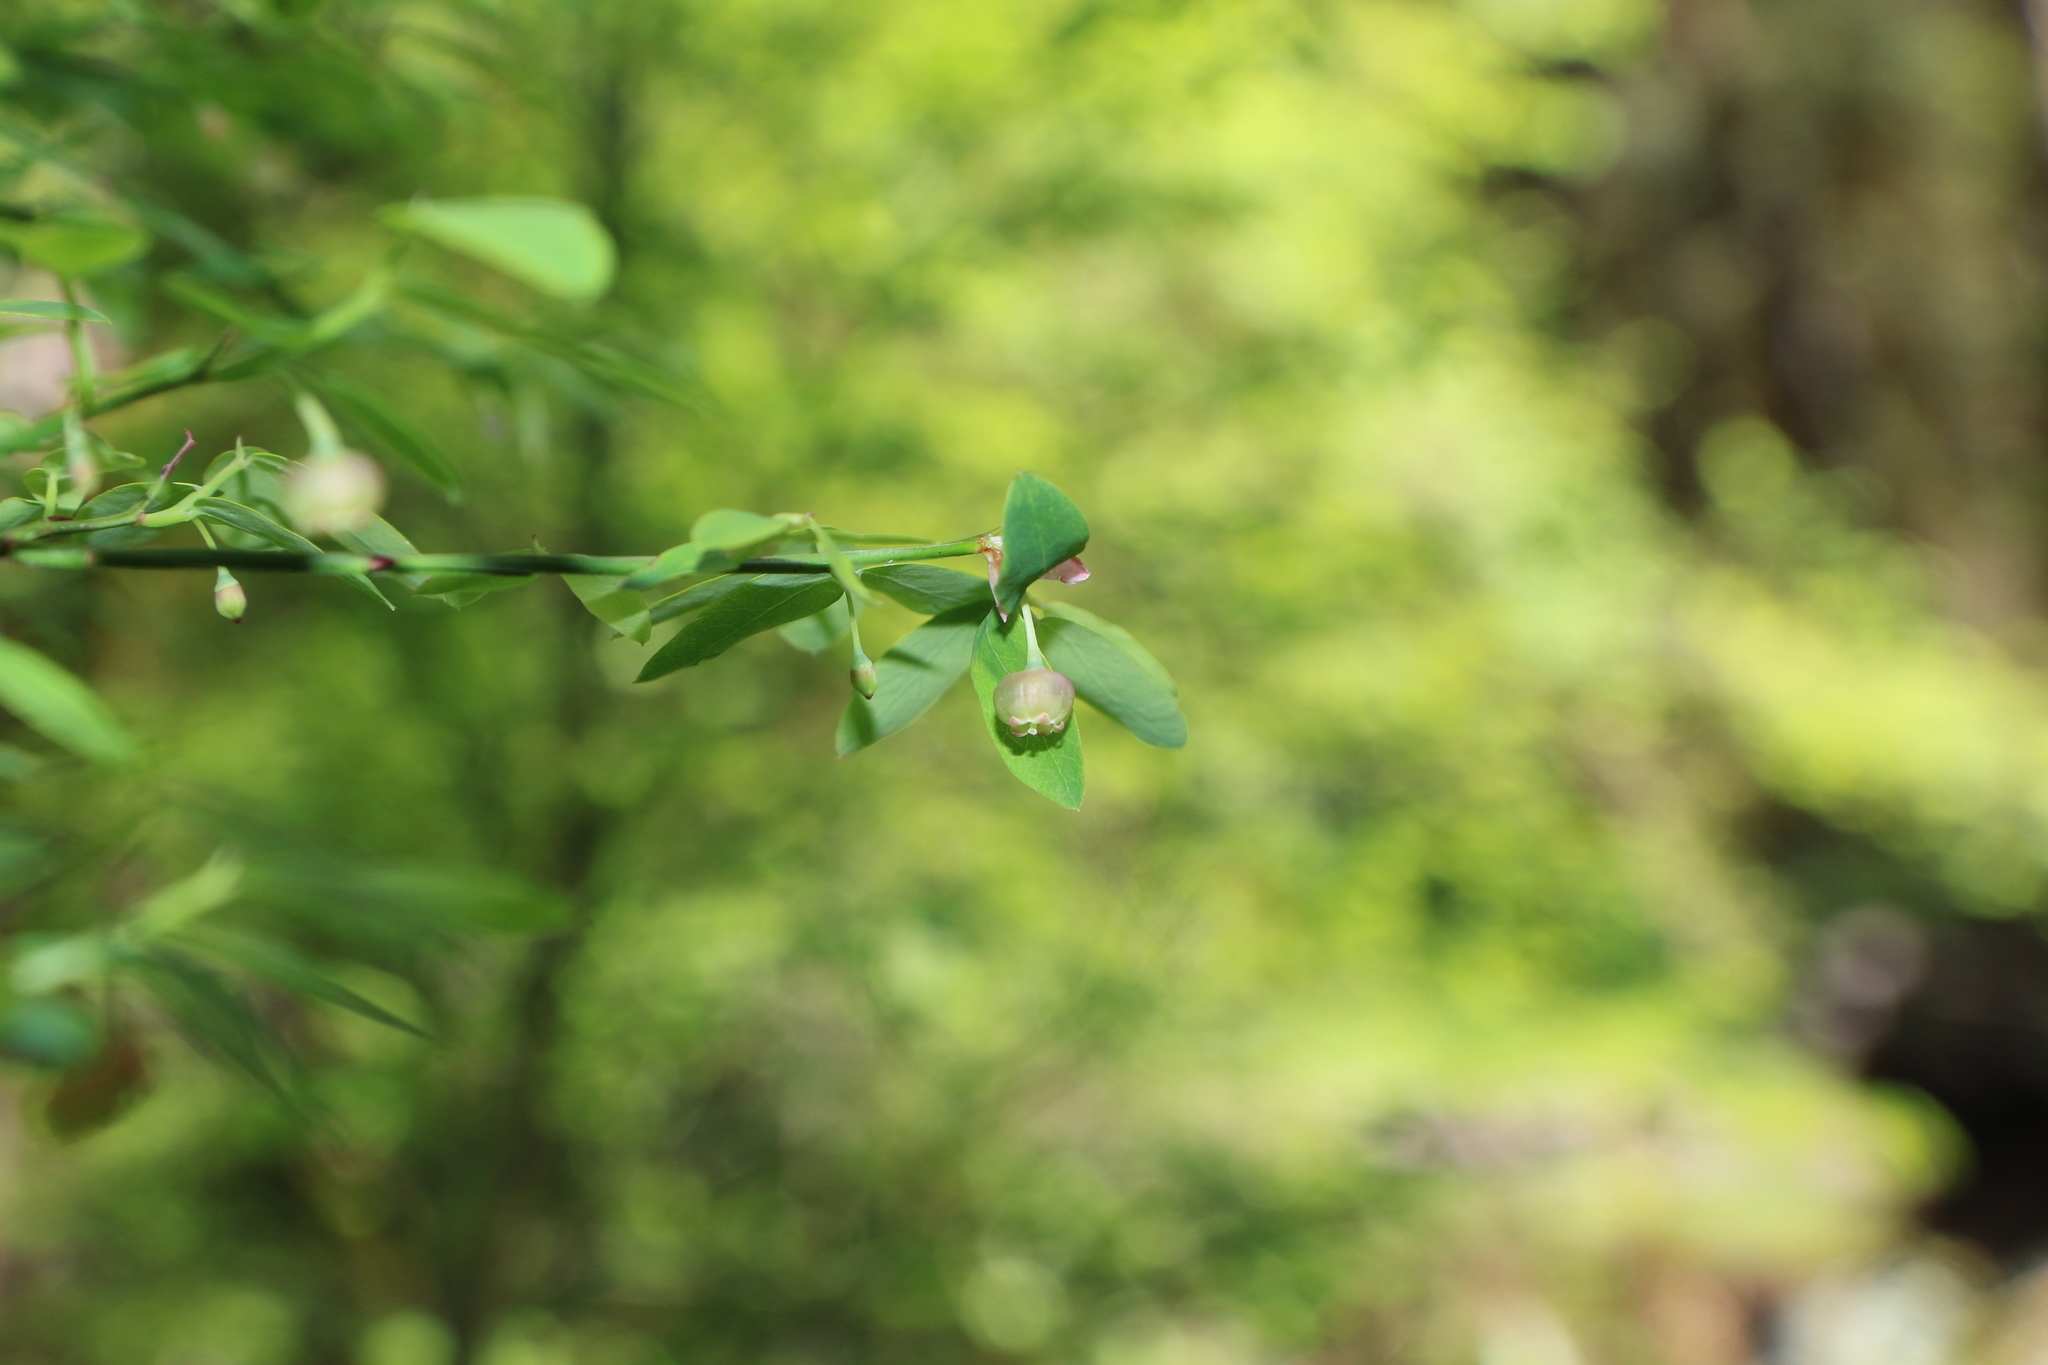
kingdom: Plantae
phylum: Tracheophyta
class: Magnoliopsida
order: Ericales
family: Ericaceae
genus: Vaccinium
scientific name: Vaccinium parvifolium
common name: Red-huckleberry
